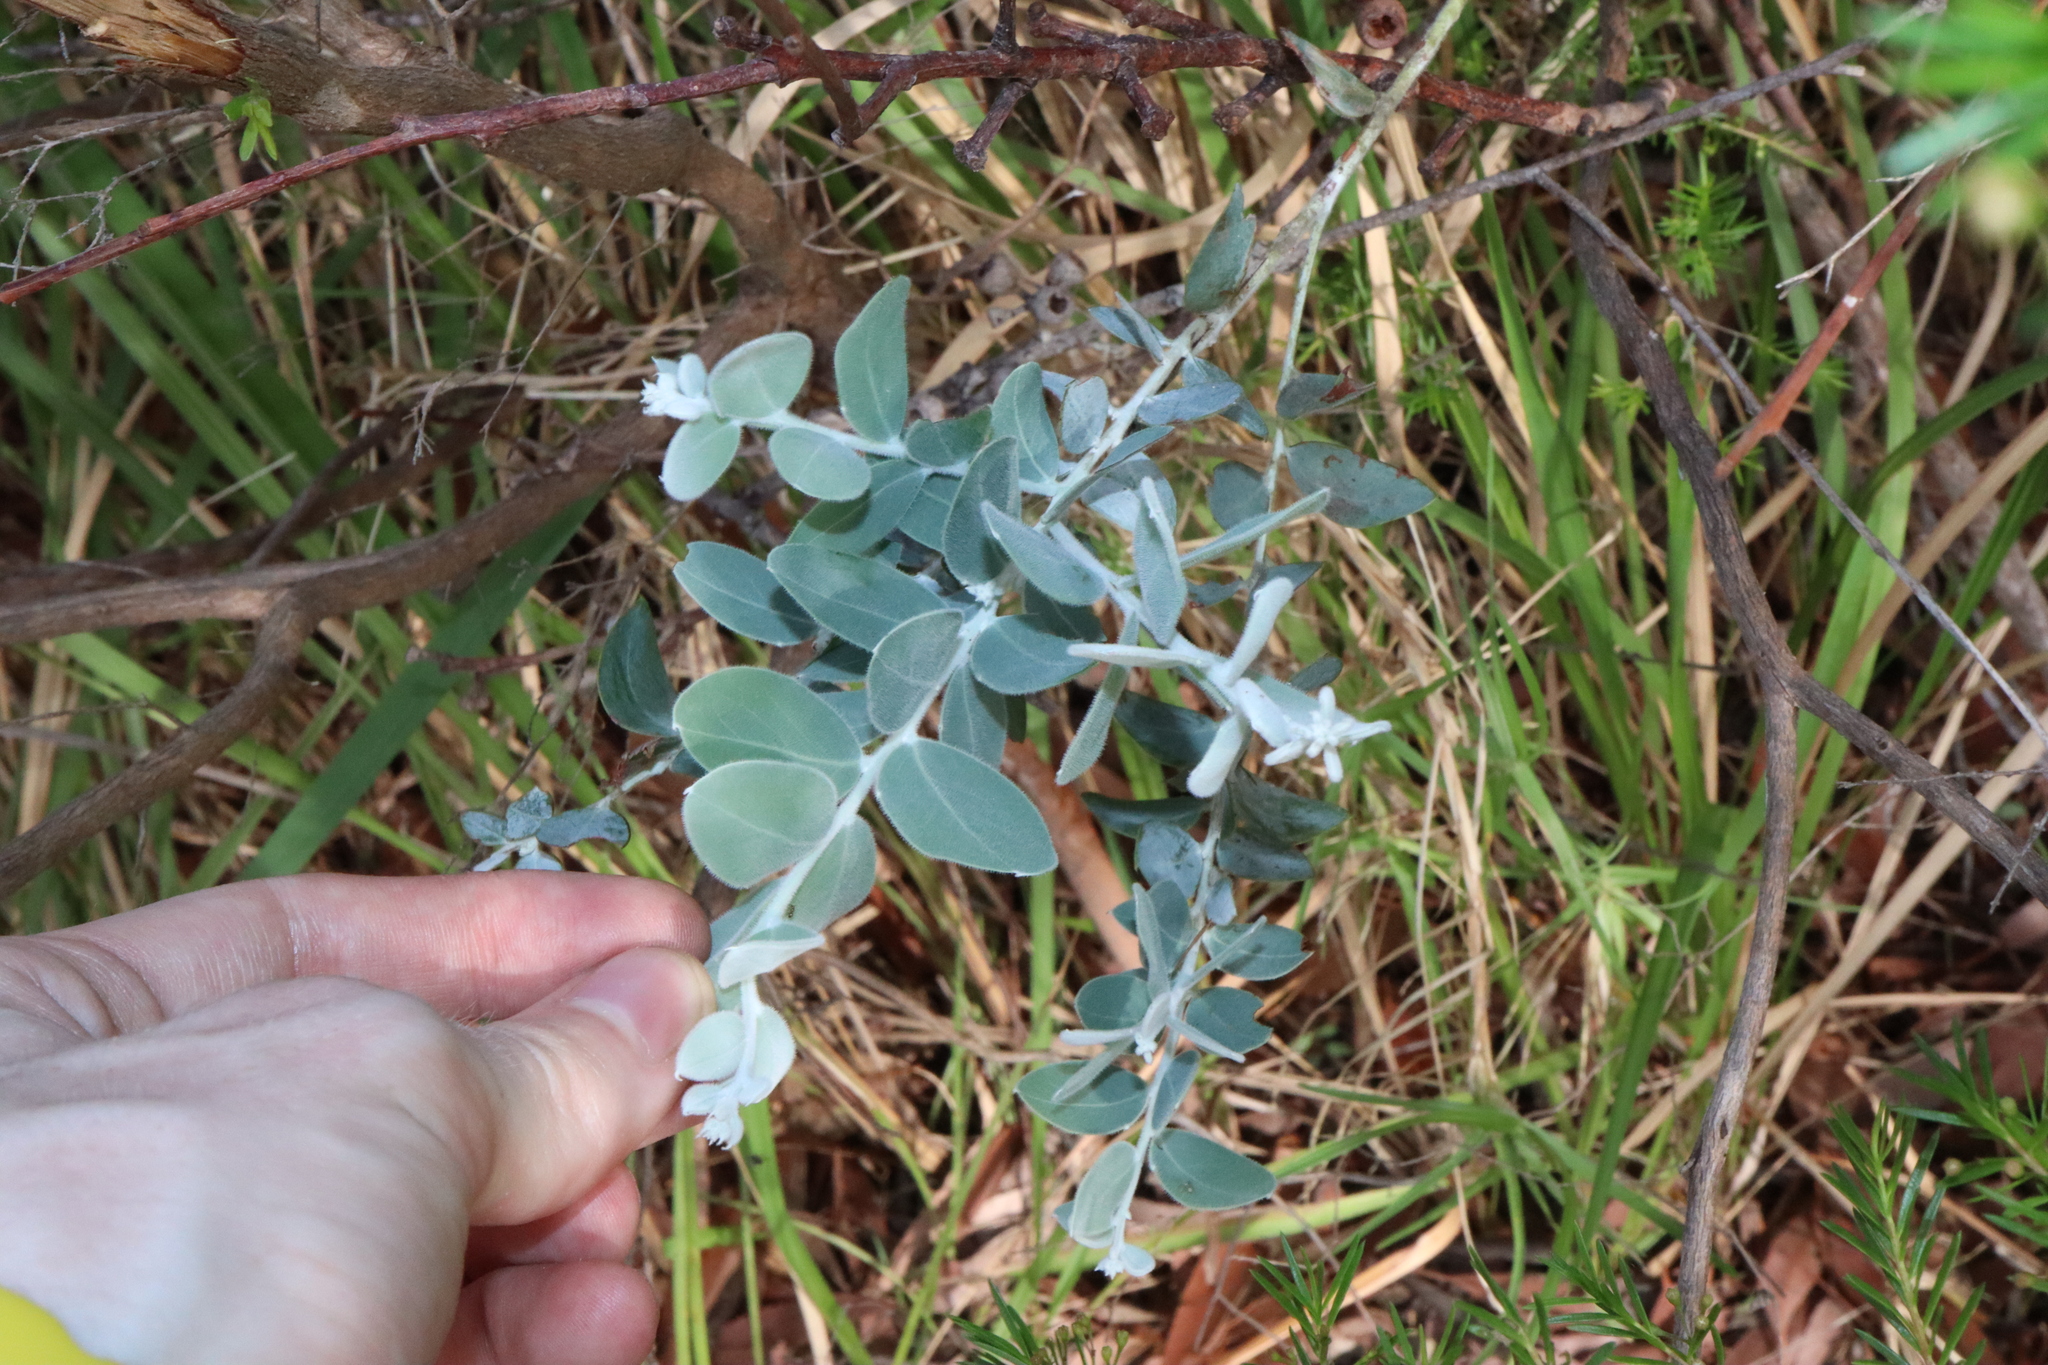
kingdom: Plantae
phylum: Tracheophyta
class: Magnoliopsida
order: Fabales
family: Fabaceae
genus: Acacia
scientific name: Acacia podalyriifolia
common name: Pearl wattle
